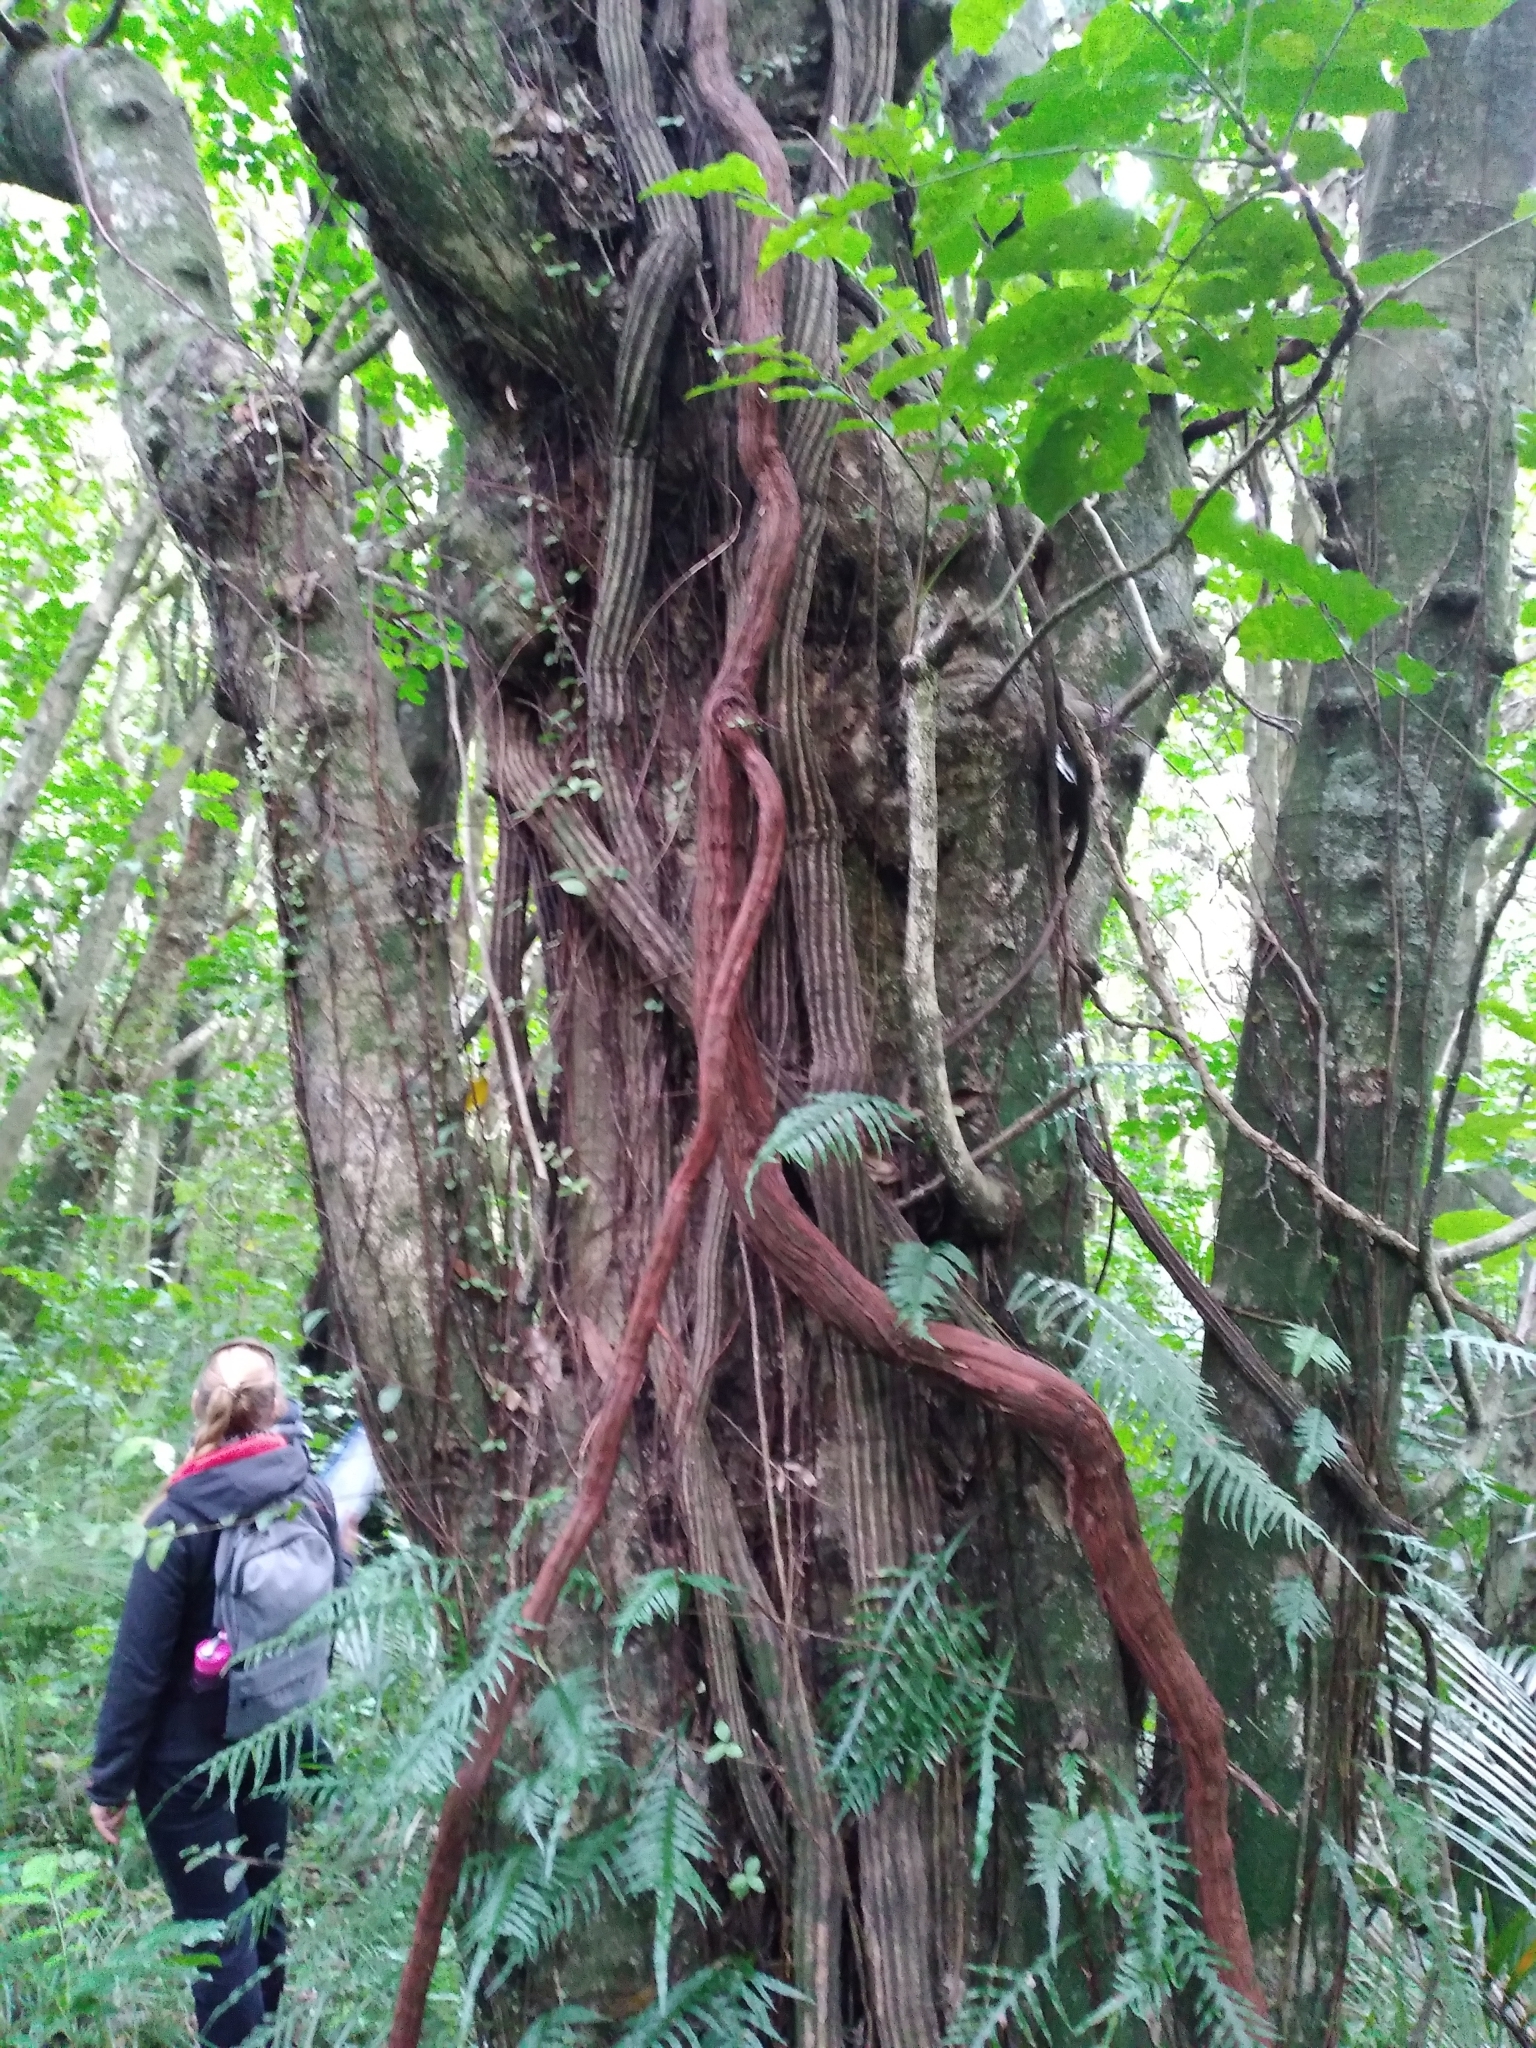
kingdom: Plantae
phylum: Tracheophyta
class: Magnoliopsida
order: Apiales
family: Griseliniaceae
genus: Griselinia
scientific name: Griselinia lucida
